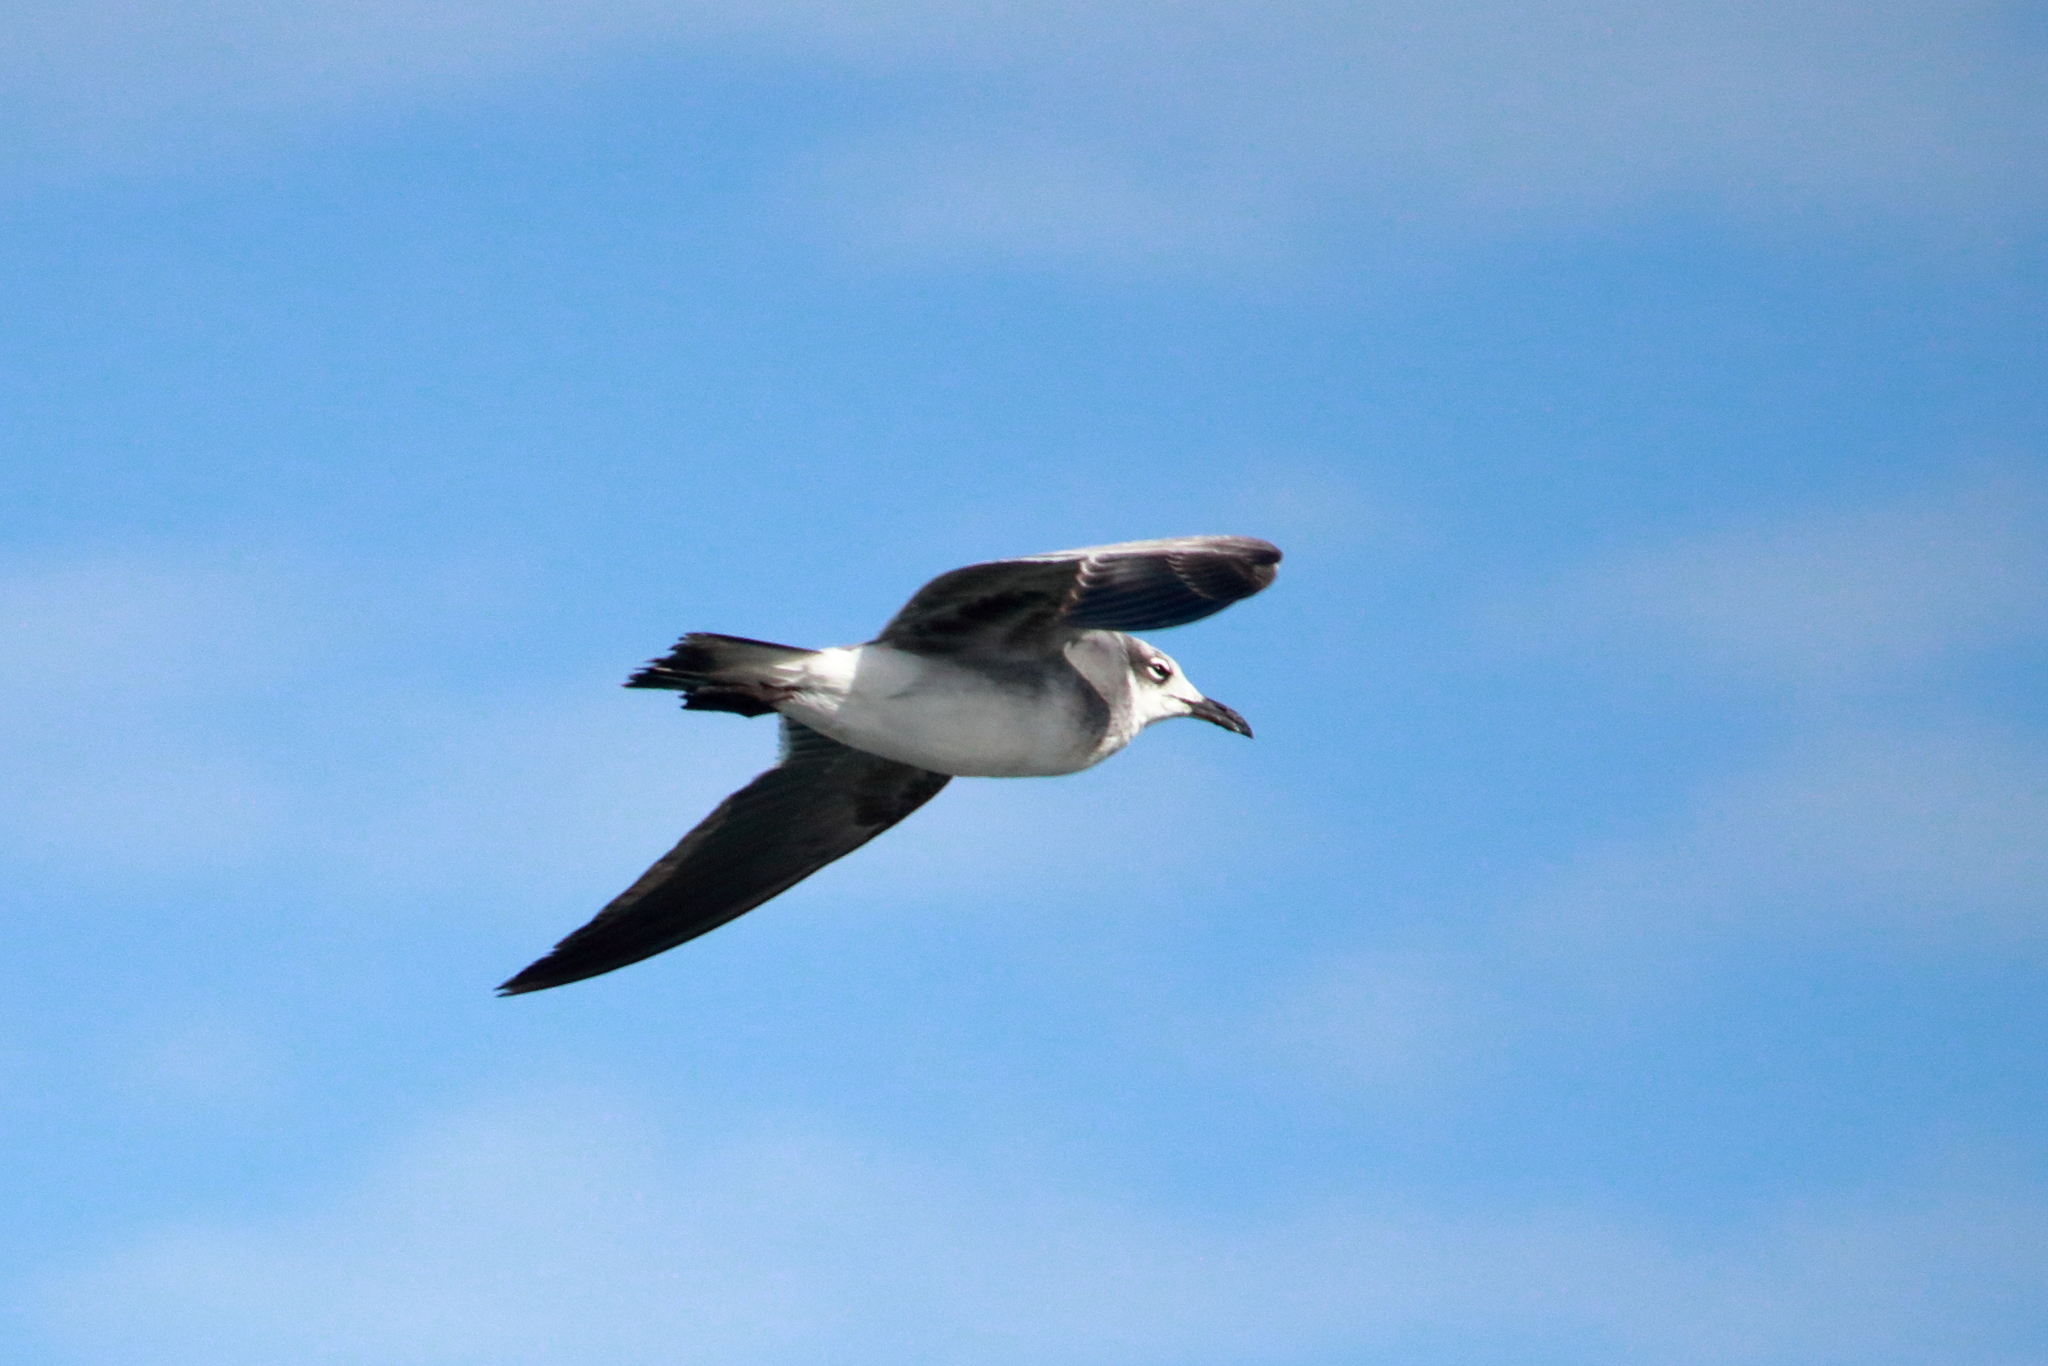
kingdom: Animalia
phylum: Chordata
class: Aves
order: Charadriiformes
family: Laridae
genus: Leucophaeus
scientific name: Leucophaeus atricilla
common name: Laughing gull
